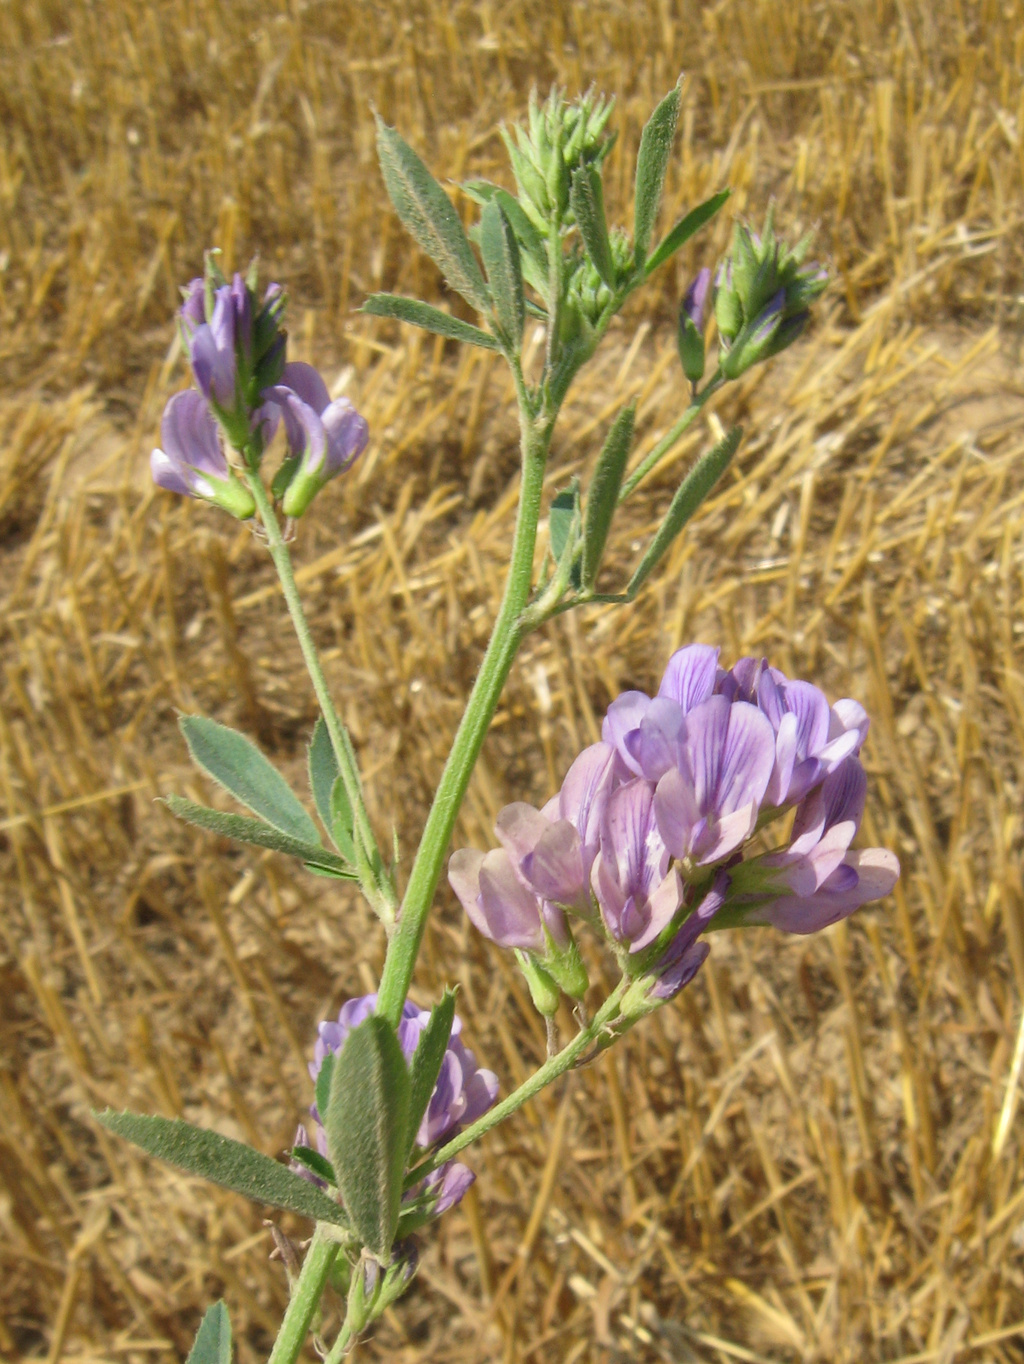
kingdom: Plantae
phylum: Tracheophyta
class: Magnoliopsida
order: Fabales
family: Fabaceae
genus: Medicago
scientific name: Medicago sativa
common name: Alfalfa
